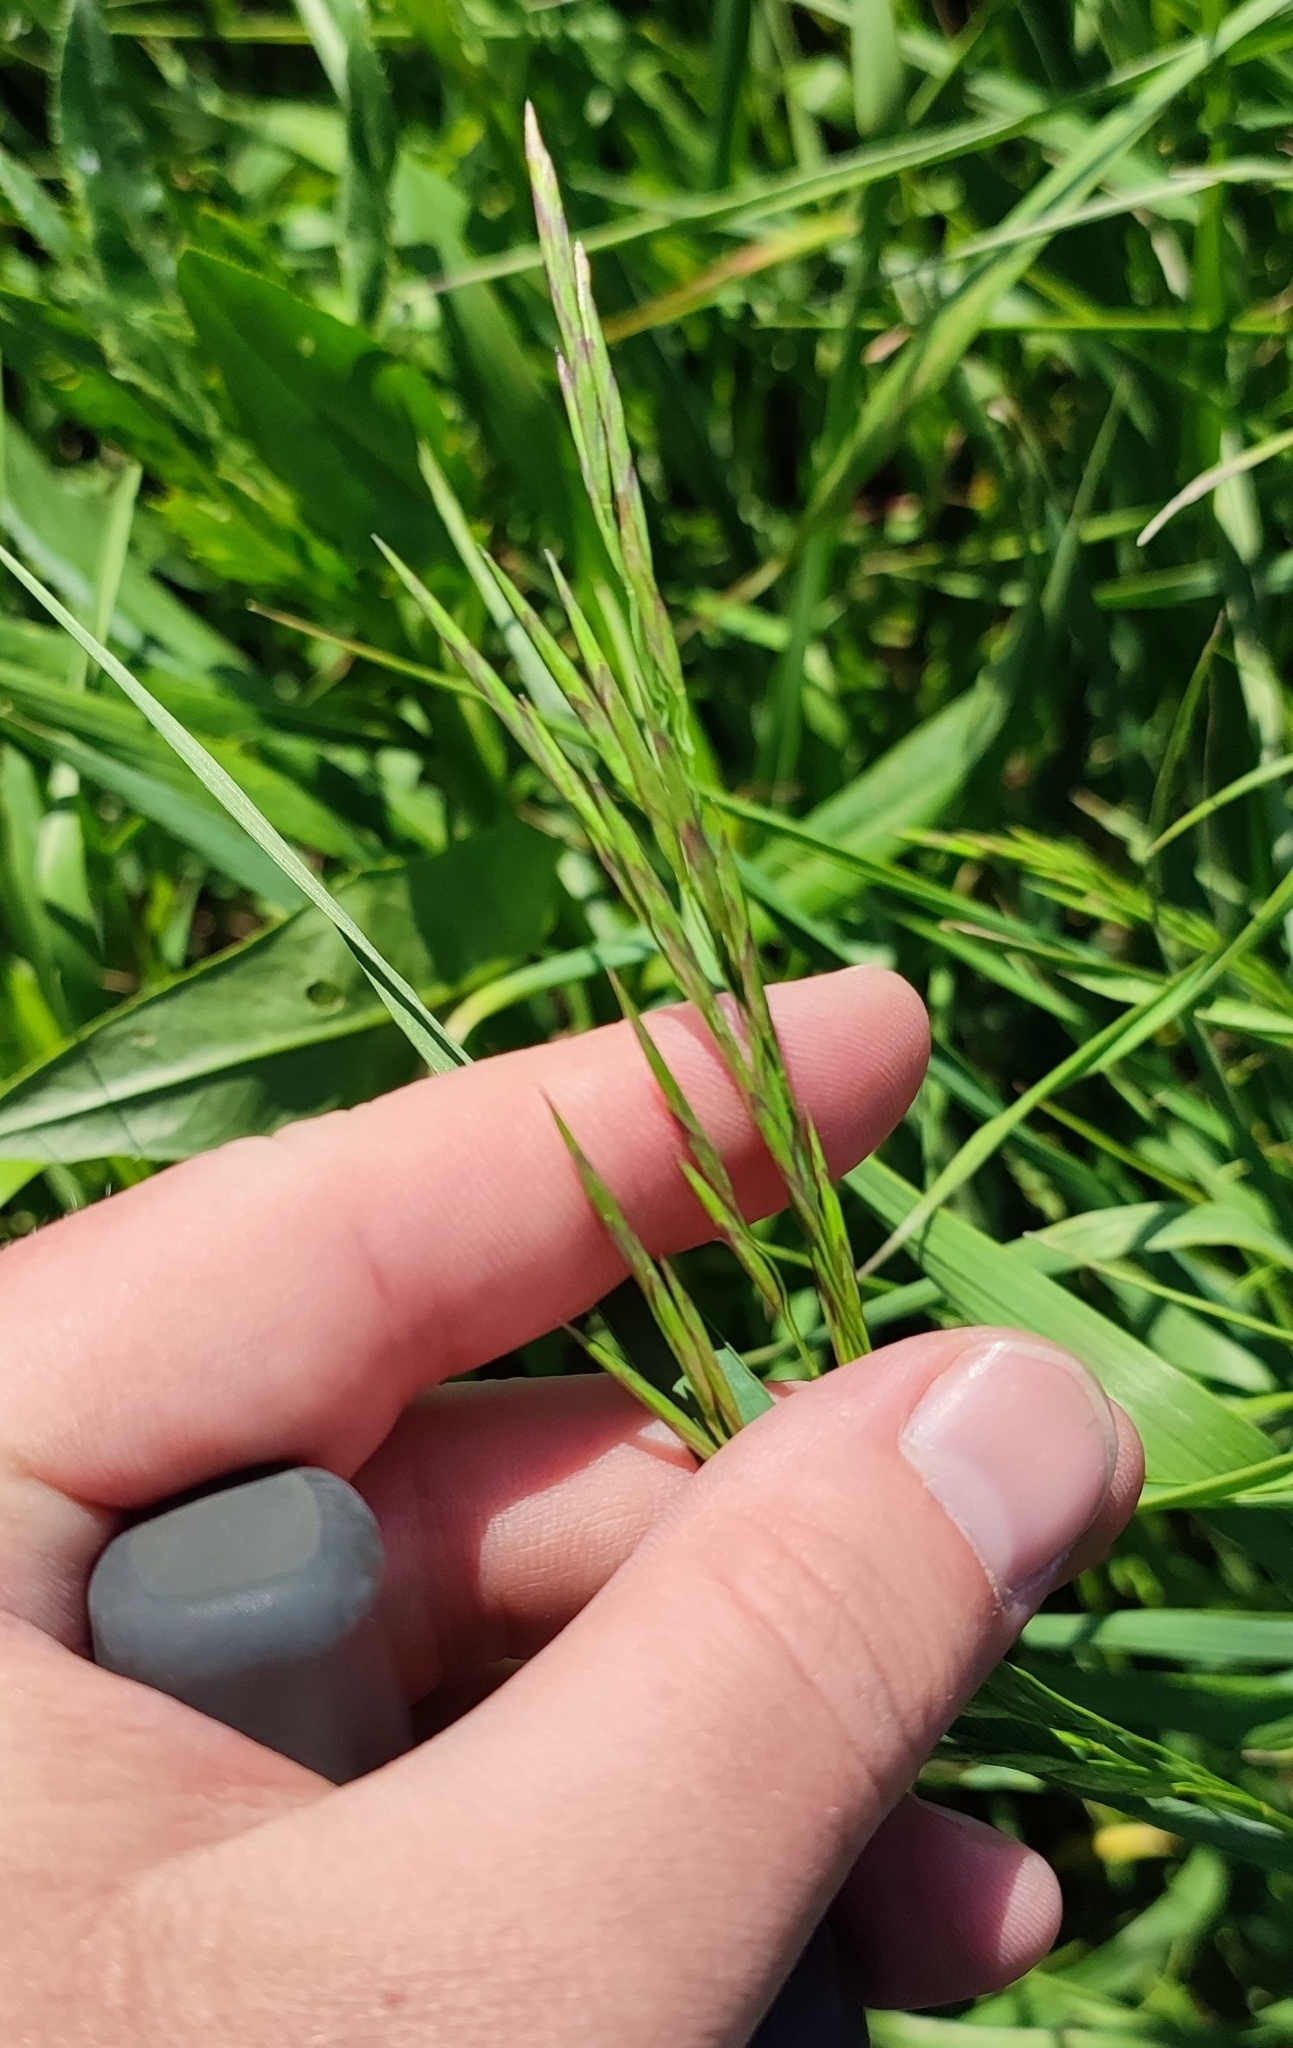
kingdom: Plantae
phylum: Tracheophyta
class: Liliopsida
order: Poales
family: Poaceae
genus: Bromus
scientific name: Bromus inermis
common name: Smooth brome
